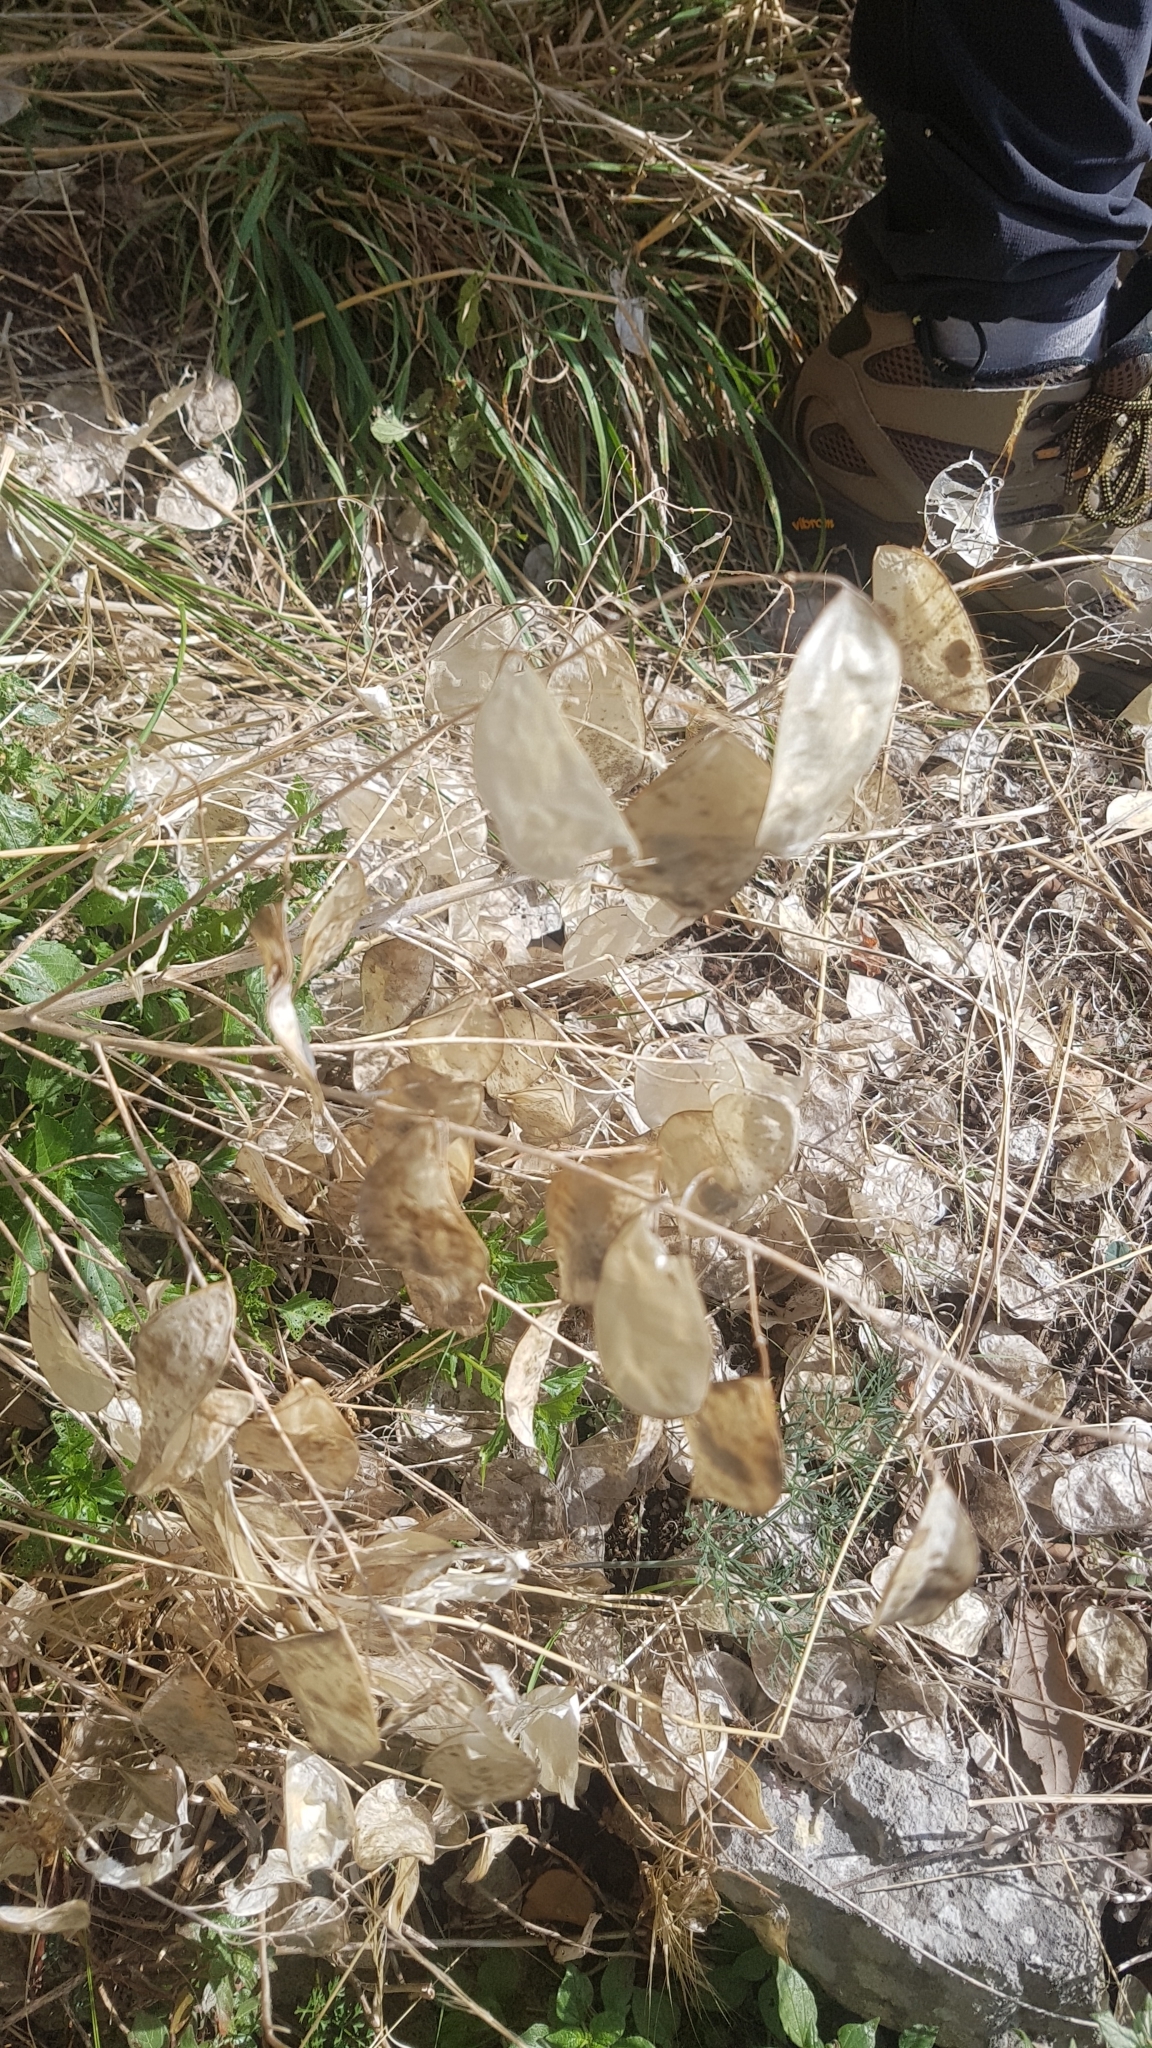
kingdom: Plantae
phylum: Tracheophyta
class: Magnoliopsida
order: Brassicales
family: Brassicaceae
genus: Lunaria
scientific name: Lunaria annua
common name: Honesty
